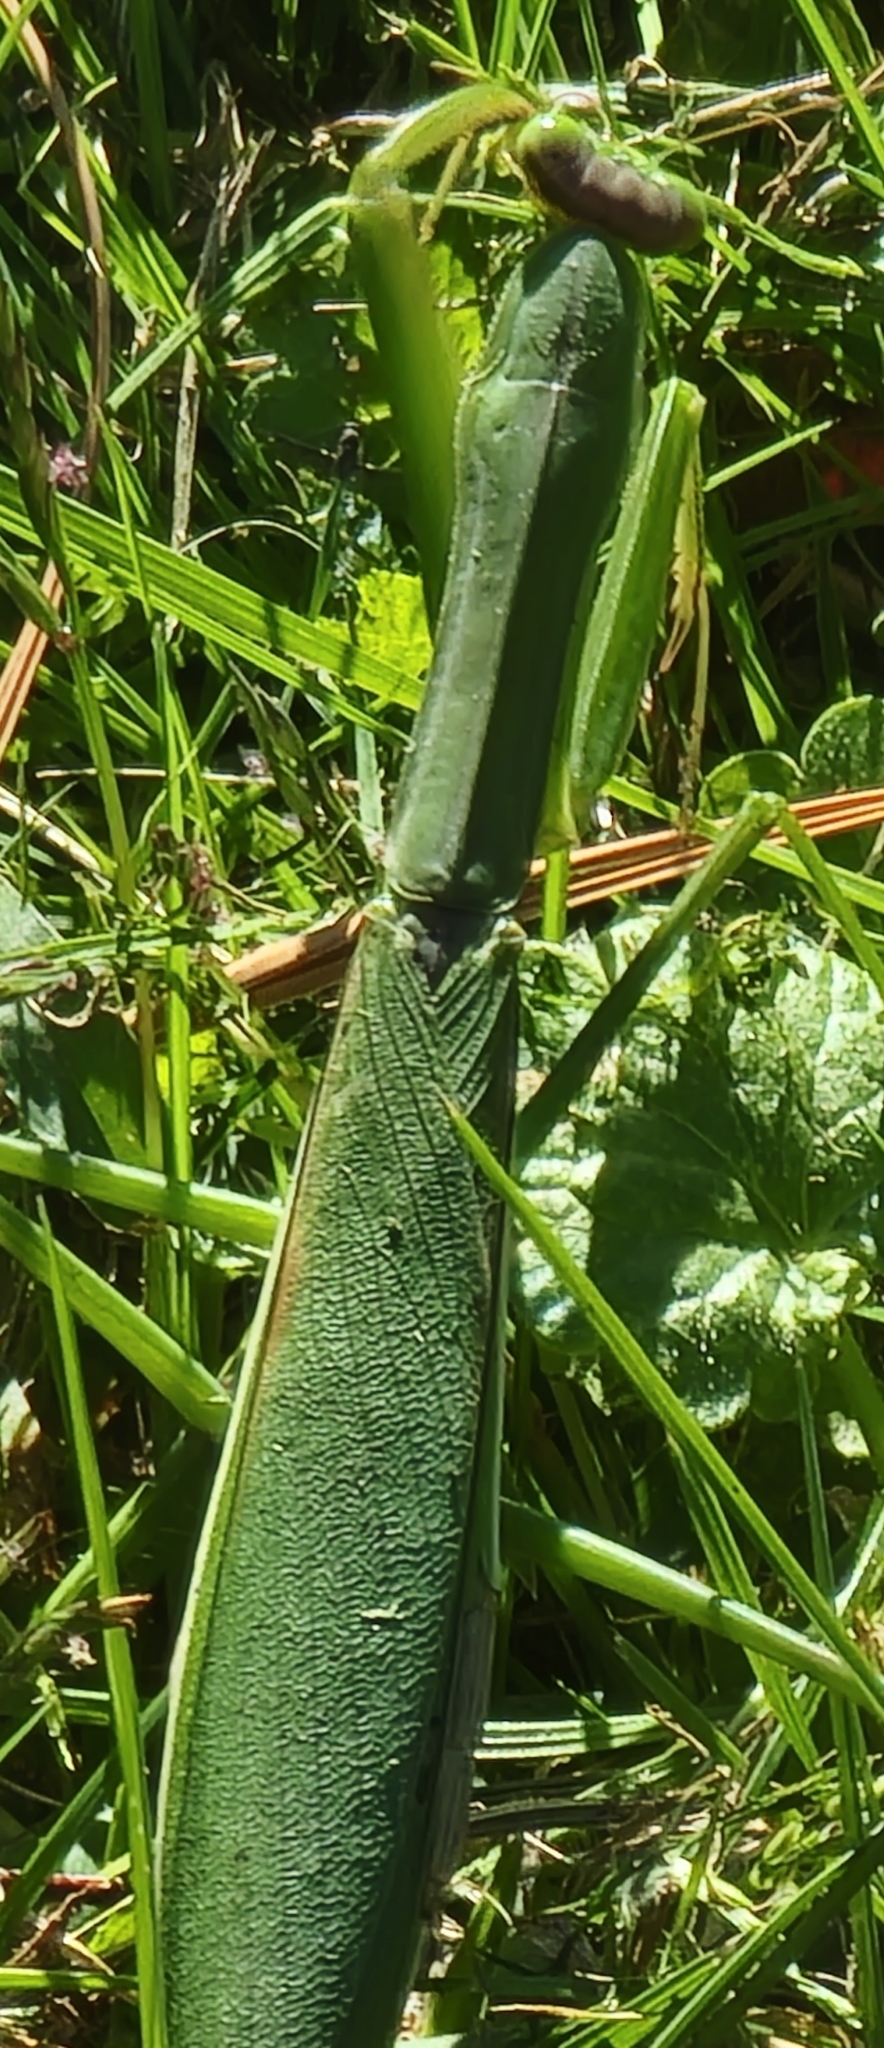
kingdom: Animalia
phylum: Arthropoda
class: Insecta
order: Mantodea
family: Mantidae
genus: Tenodera
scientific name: Tenodera sinensis
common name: Chinese mantis
